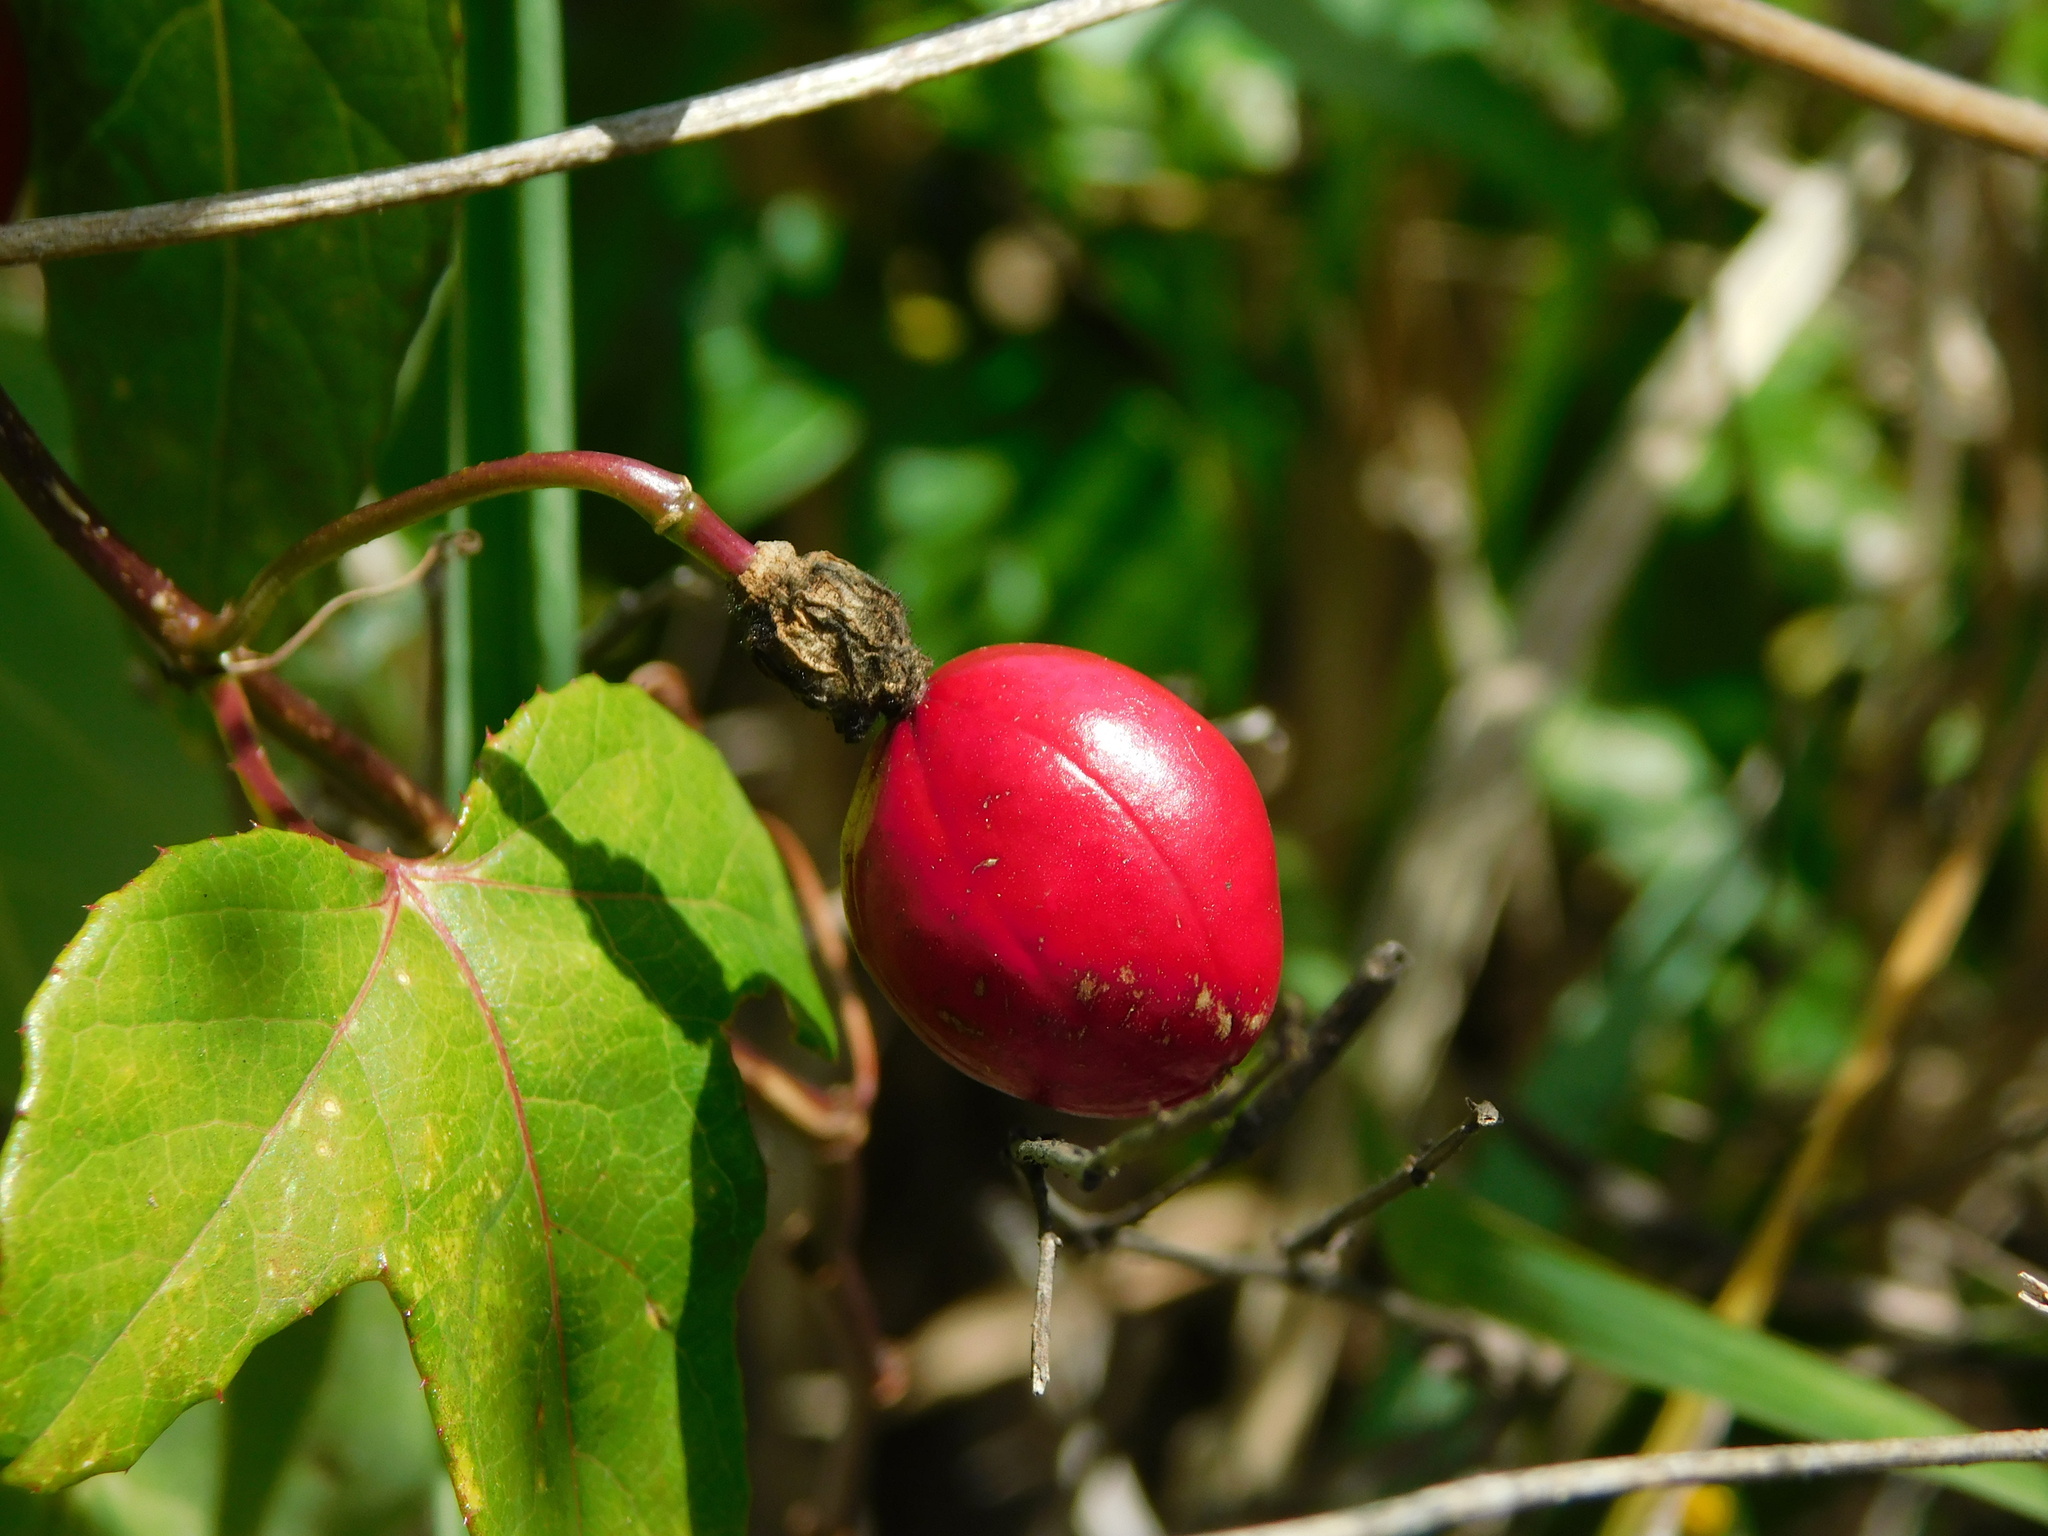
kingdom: Plantae
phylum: Tracheophyta
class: Magnoliopsida
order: Malpighiales
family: Passifloraceae
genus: Passiflora
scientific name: Passiflora ciliata
